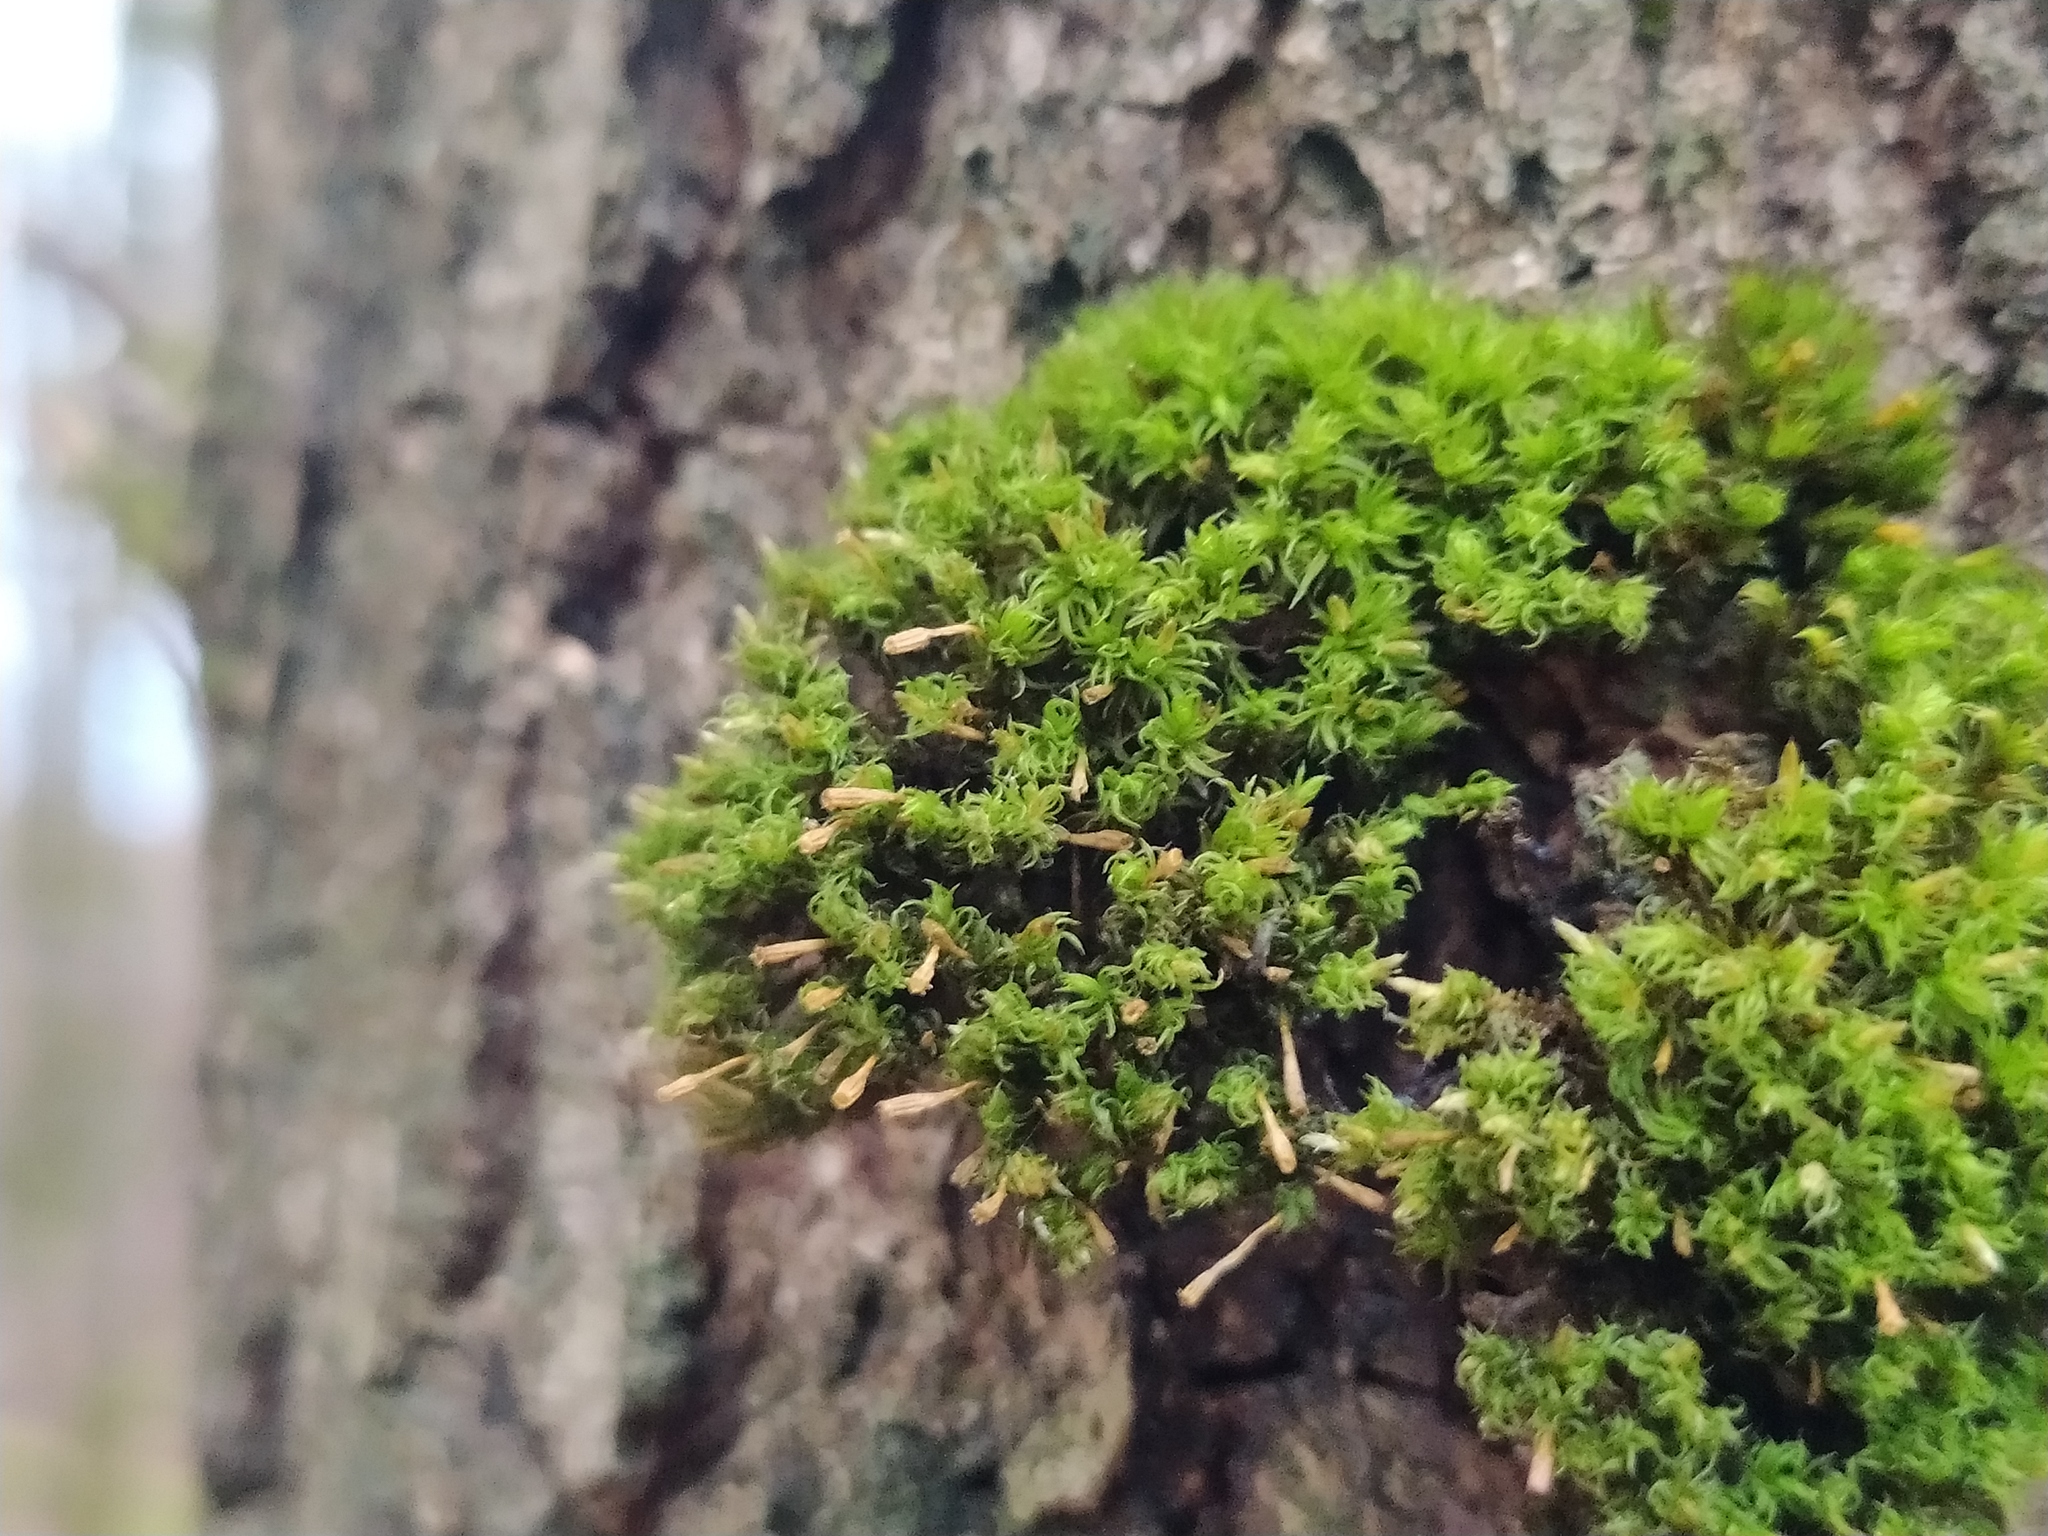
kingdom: Plantae
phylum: Bryophyta
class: Bryopsida
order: Orthotrichales
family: Orthotrichaceae
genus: Ulota
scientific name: Ulota crispula
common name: Crisped pincushion
